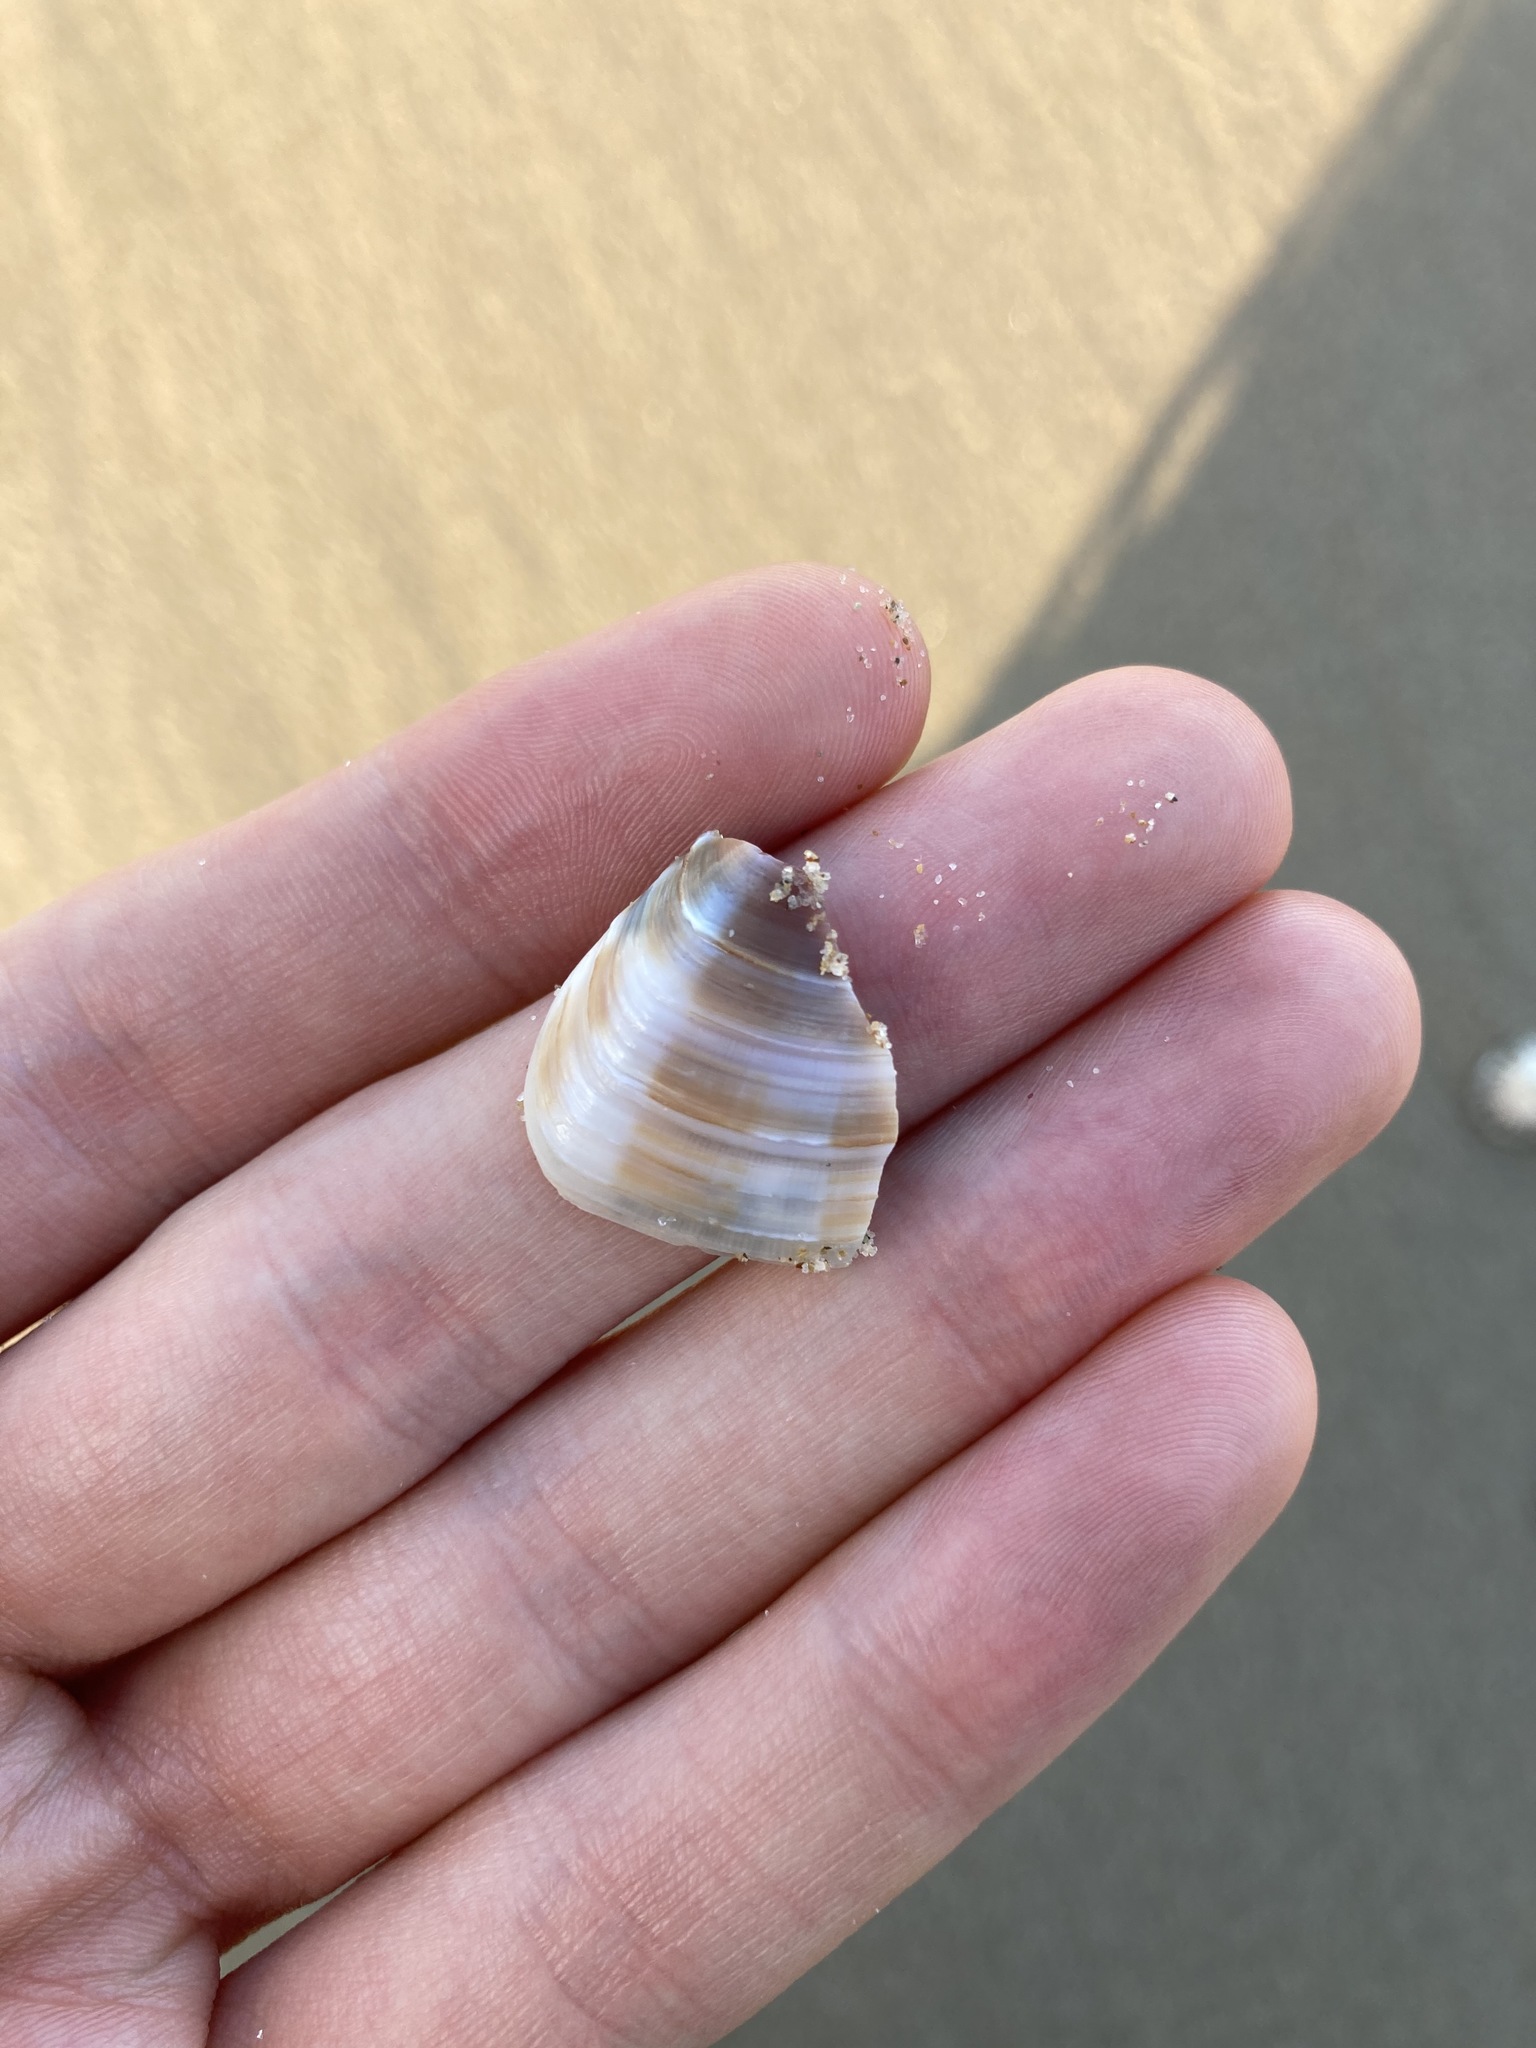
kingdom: Animalia
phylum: Mollusca
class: Bivalvia
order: Venerida
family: Veneridae
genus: Bassina
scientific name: Bassina jacksonii
